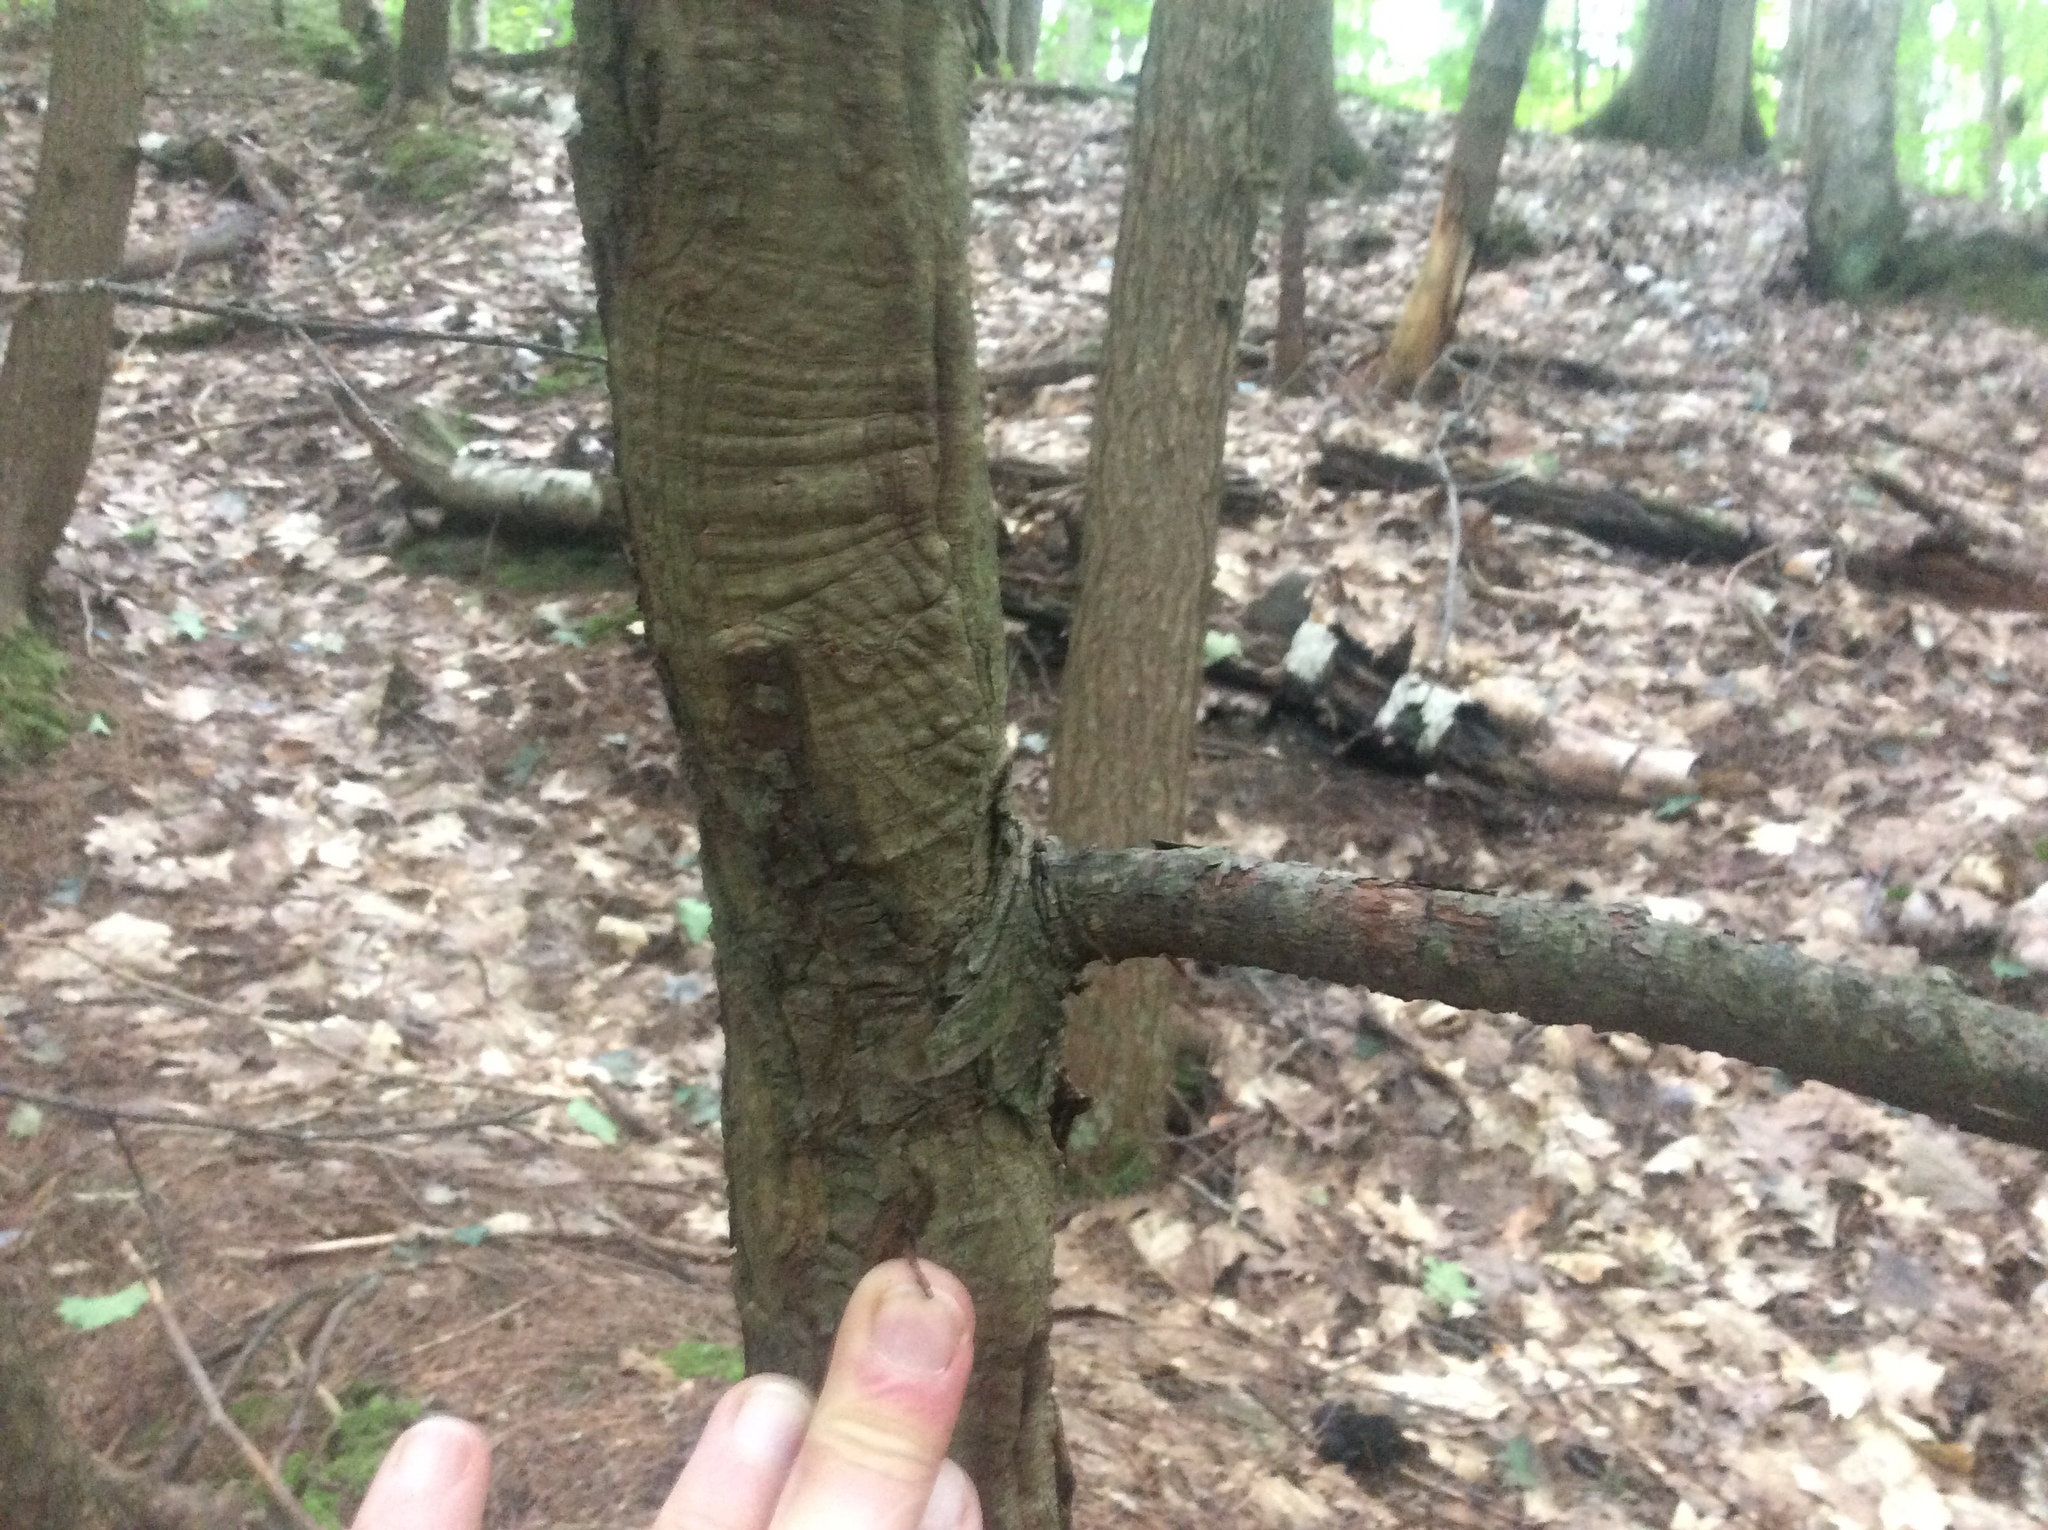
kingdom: Plantae
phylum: Tracheophyta
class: Pinopsida
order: Pinales
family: Pinaceae
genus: Tsuga
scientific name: Tsuga canadensis
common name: Eastern hemlock
